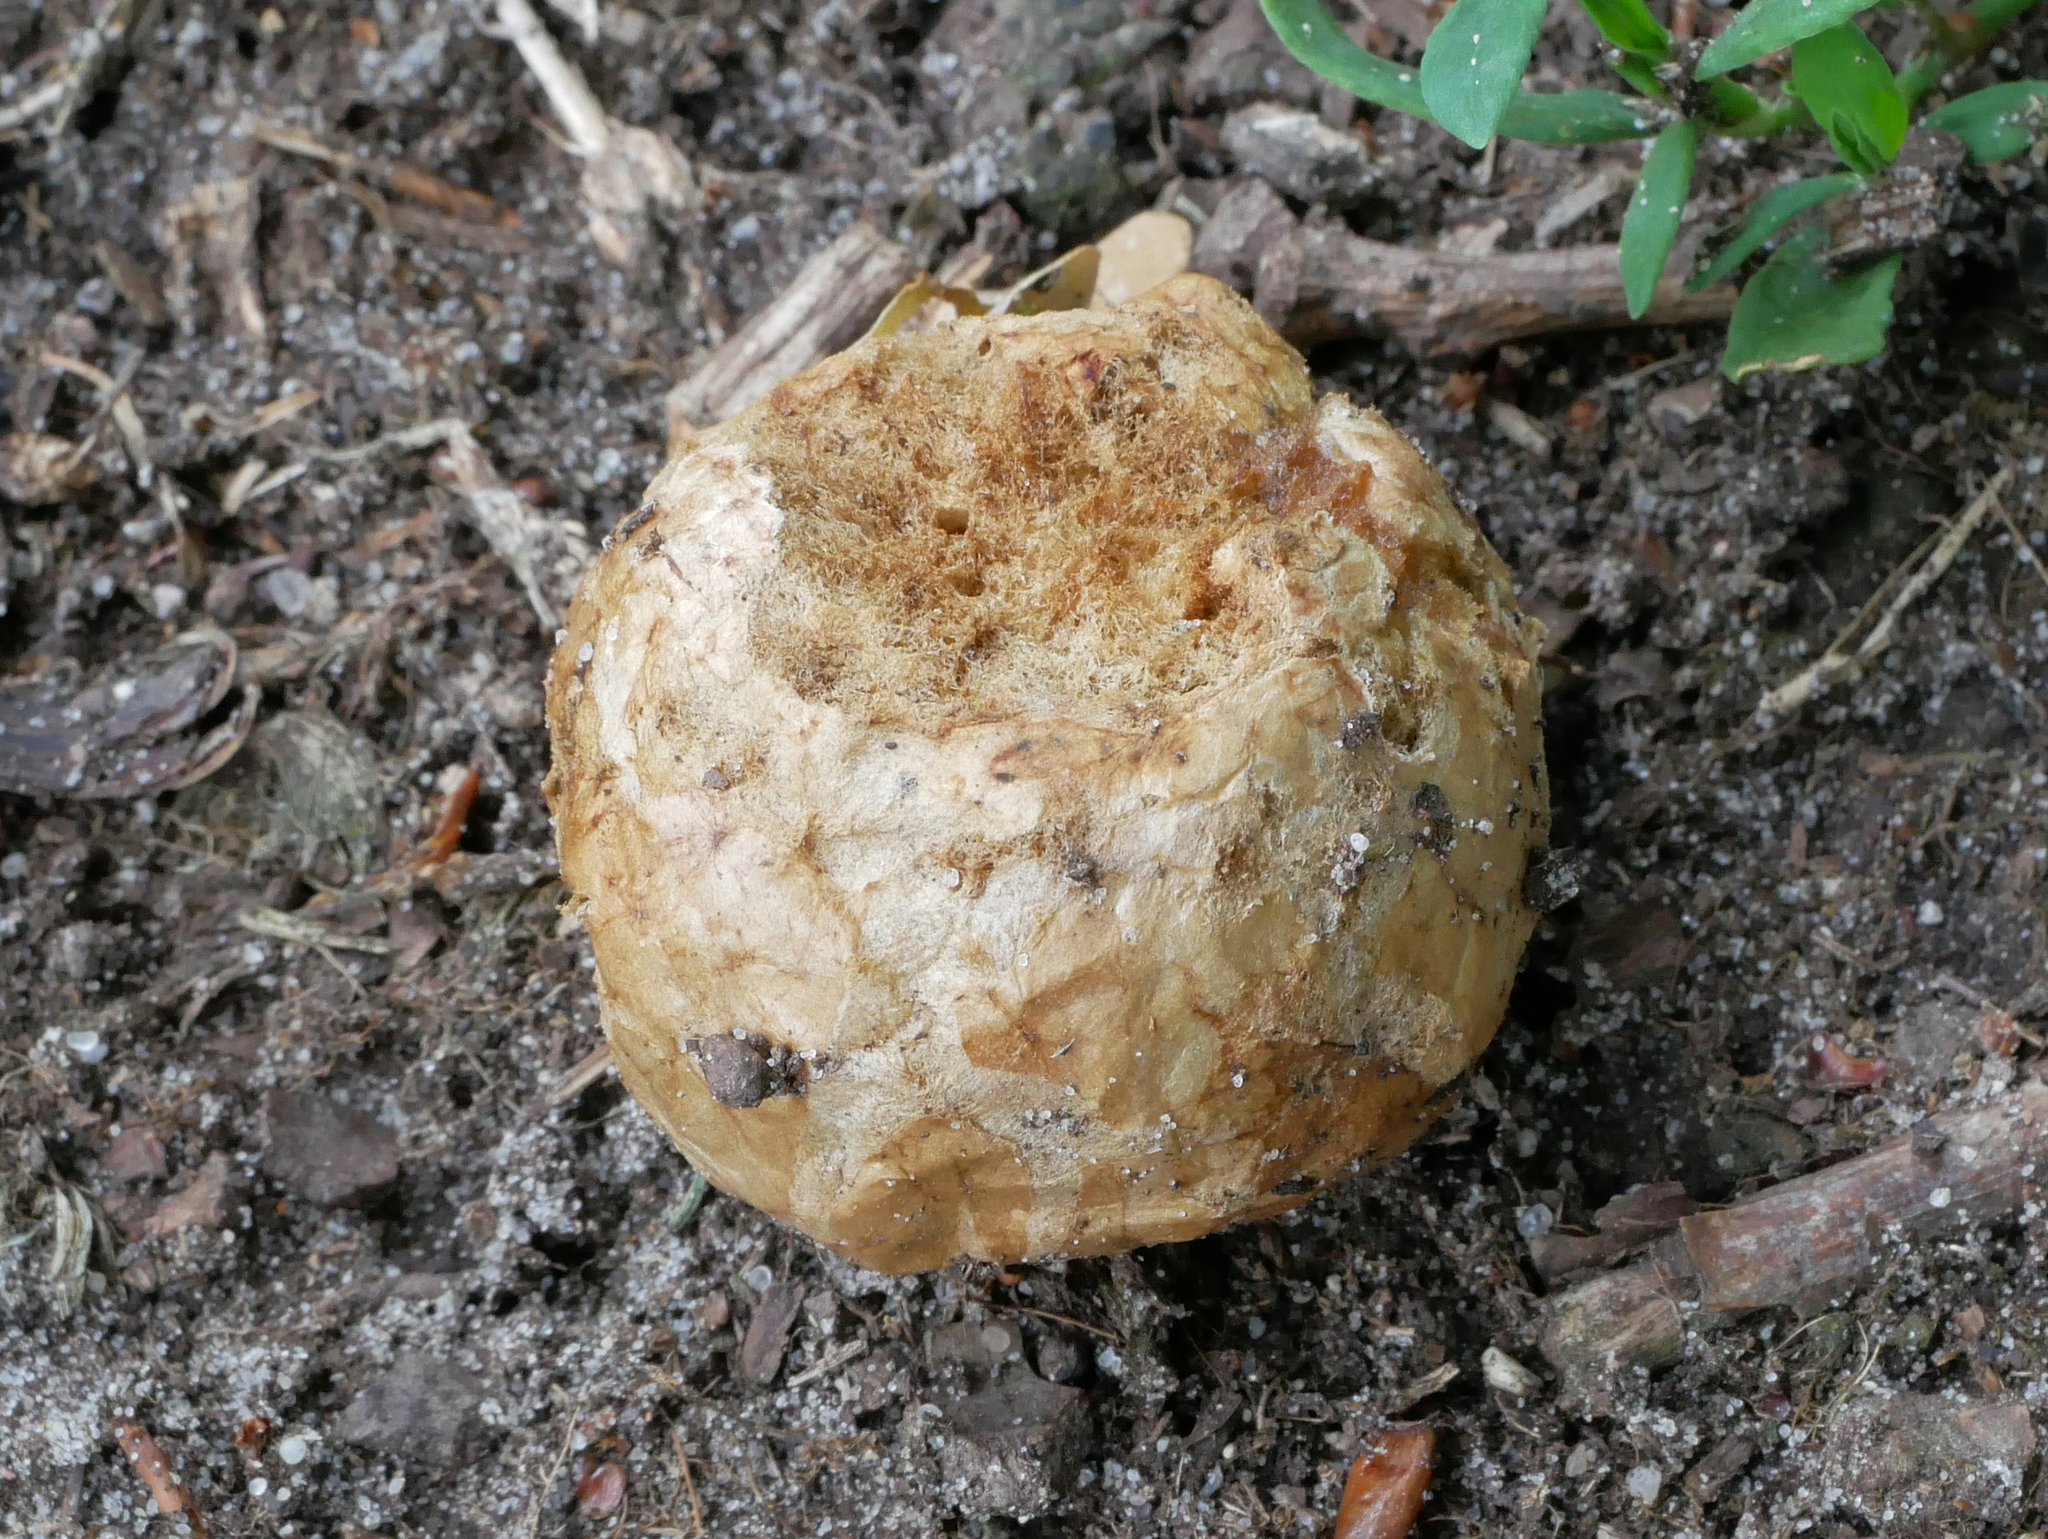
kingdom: Animalia
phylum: Arthropoda
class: Insecta
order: Hymenoptera
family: Cynipidae
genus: Biorhiza
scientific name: Biorhiza pallida
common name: Oak apple
